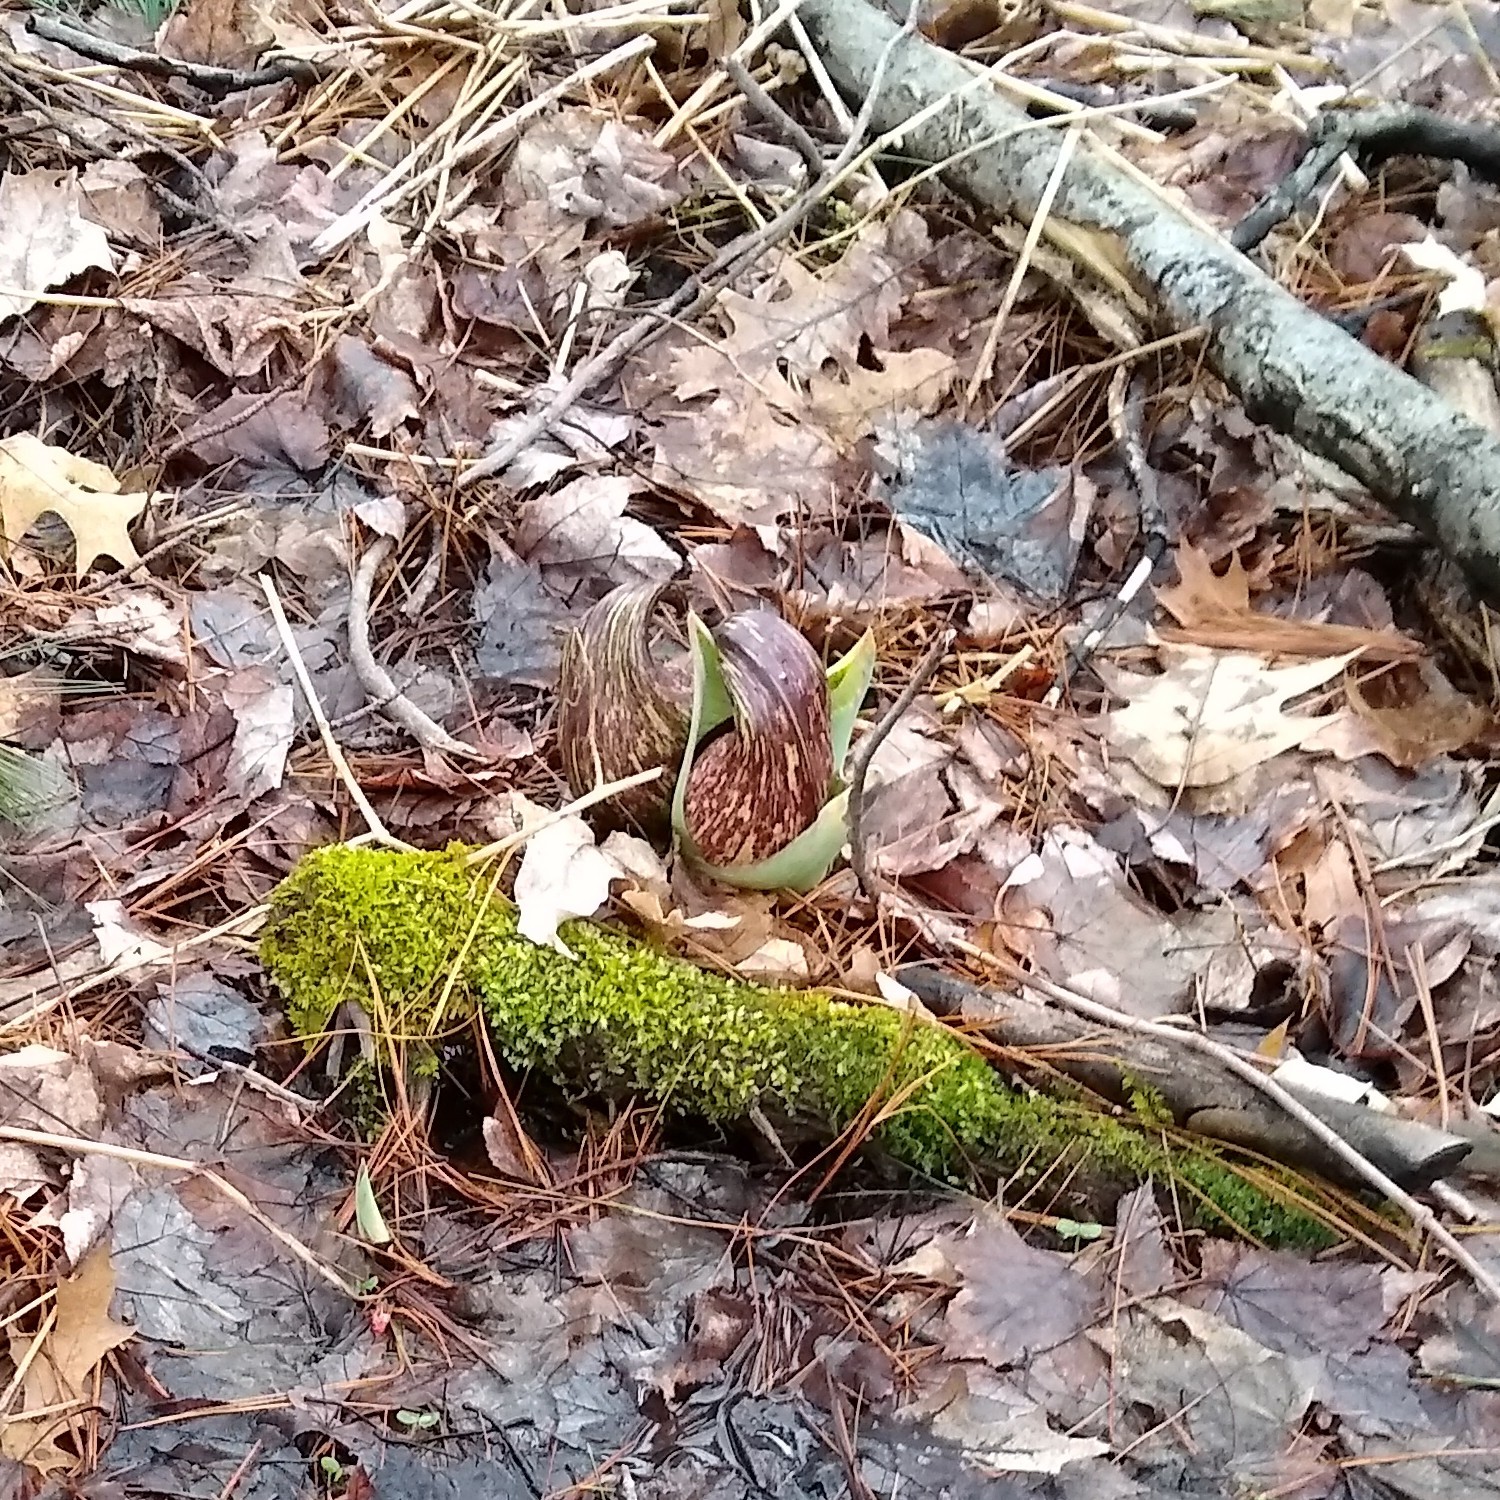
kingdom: Plantae
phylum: Tracheophyta
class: Liliopsida
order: Alismatales
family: Araceae
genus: Symplocarpus
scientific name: Symplocarpus foetidus
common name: Eastern skunk cabbage
